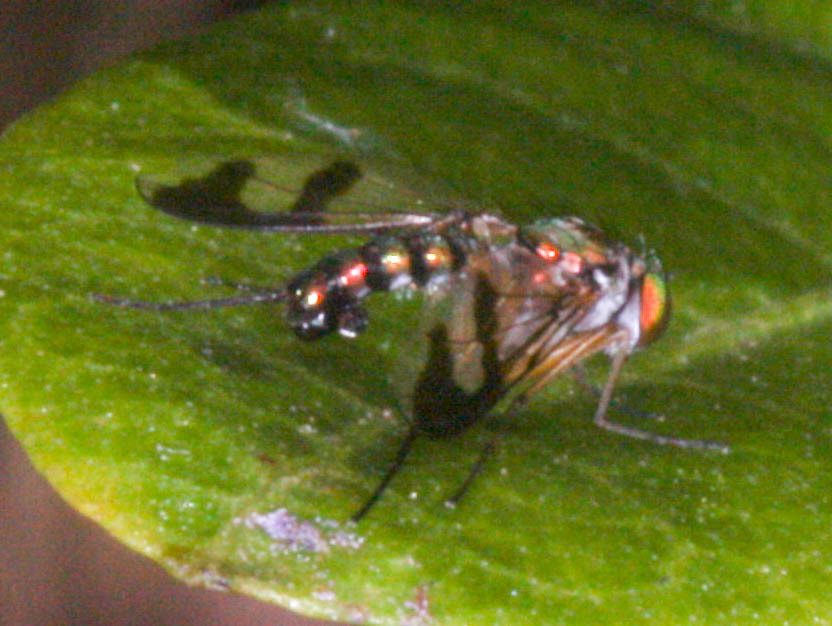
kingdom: Animalia
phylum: Arthropoda
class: Insecta
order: Diptera
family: Dolichopodidae
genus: Austrosciapus
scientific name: Austrosciapus connexus
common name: Green long-legged fly
